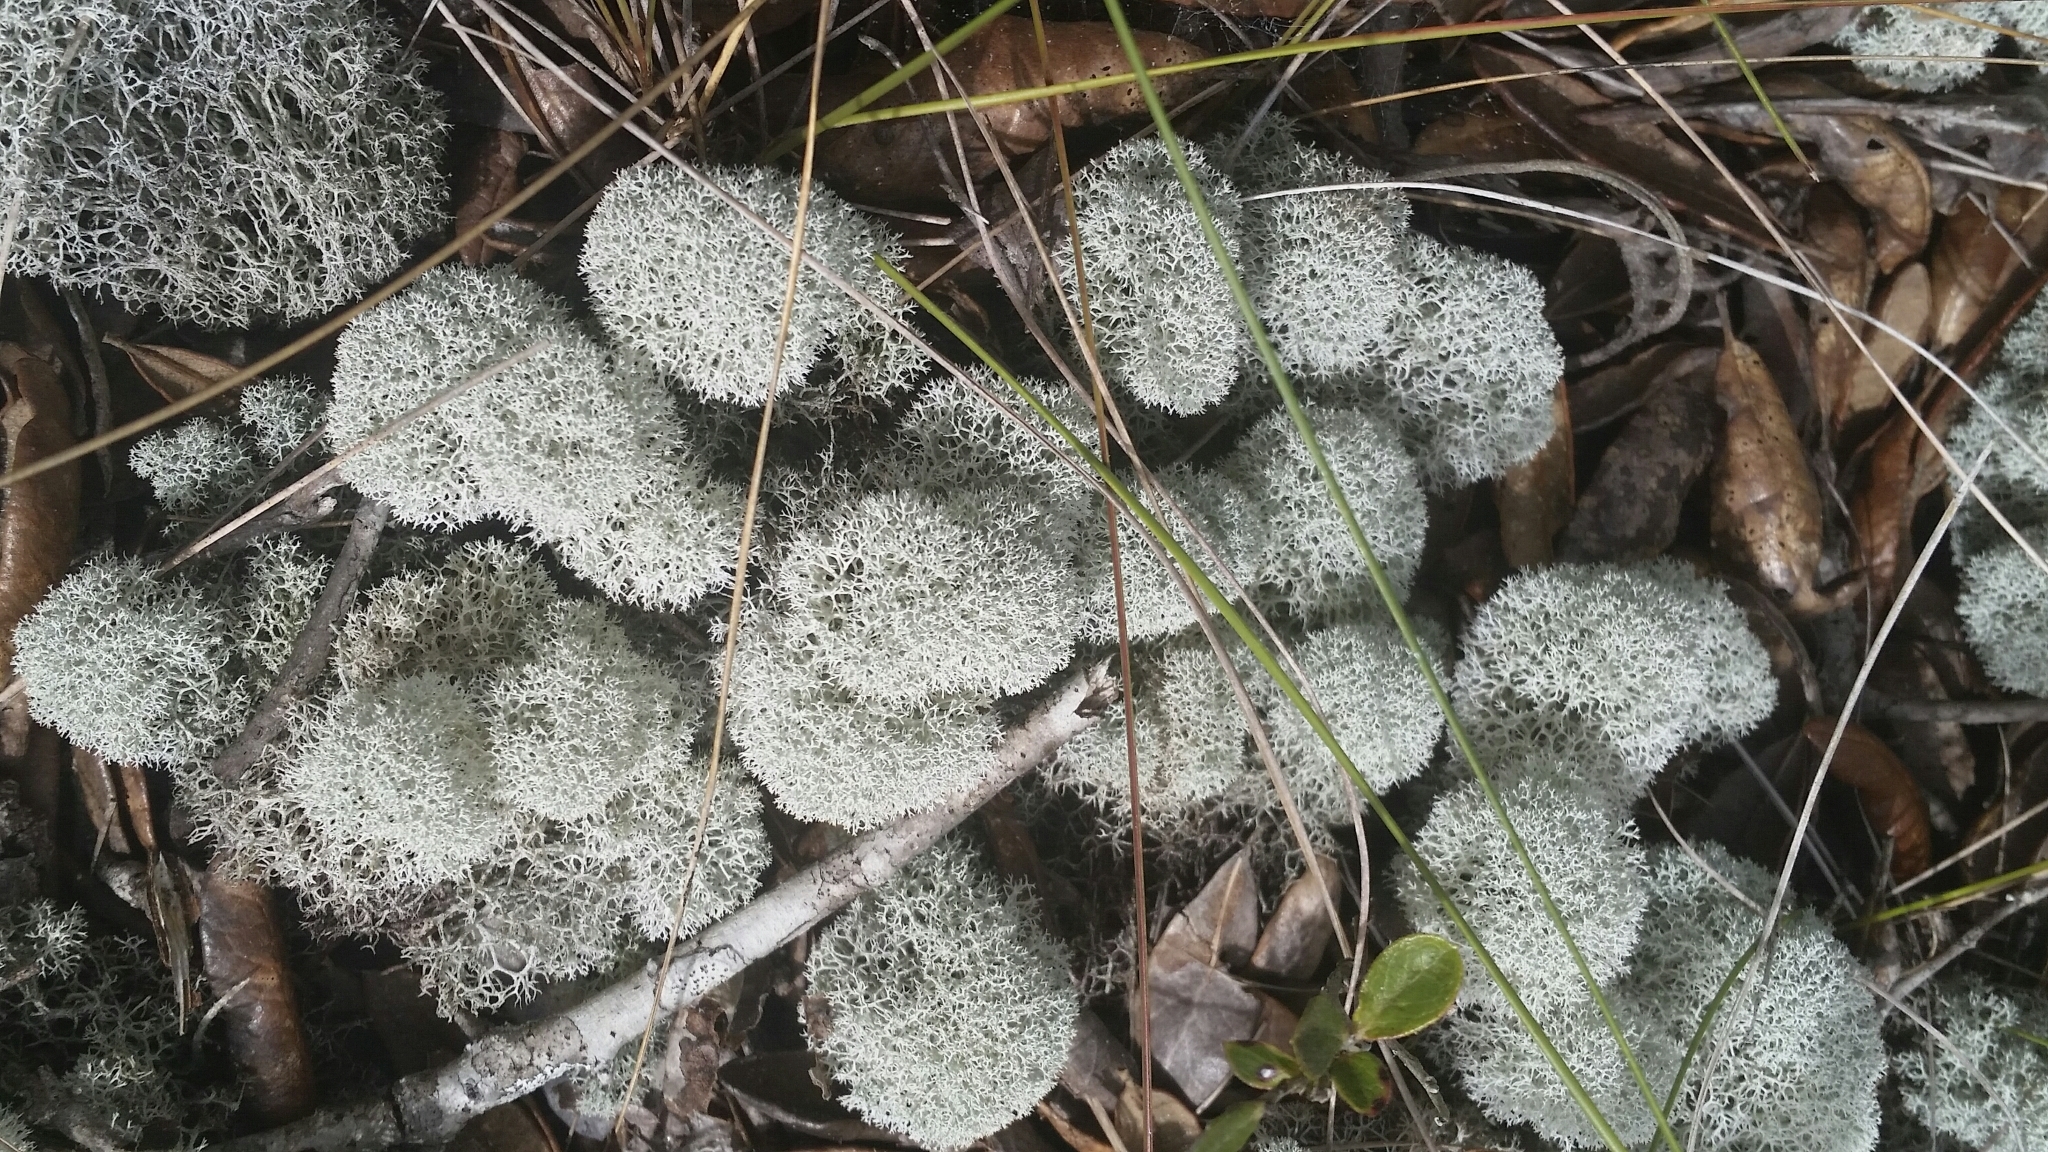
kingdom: Fungi
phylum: Ascomycota
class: Lecanoromycetes
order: Lecanorales
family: Cladoniaceae
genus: Cladonia
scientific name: Cladonia evansii
